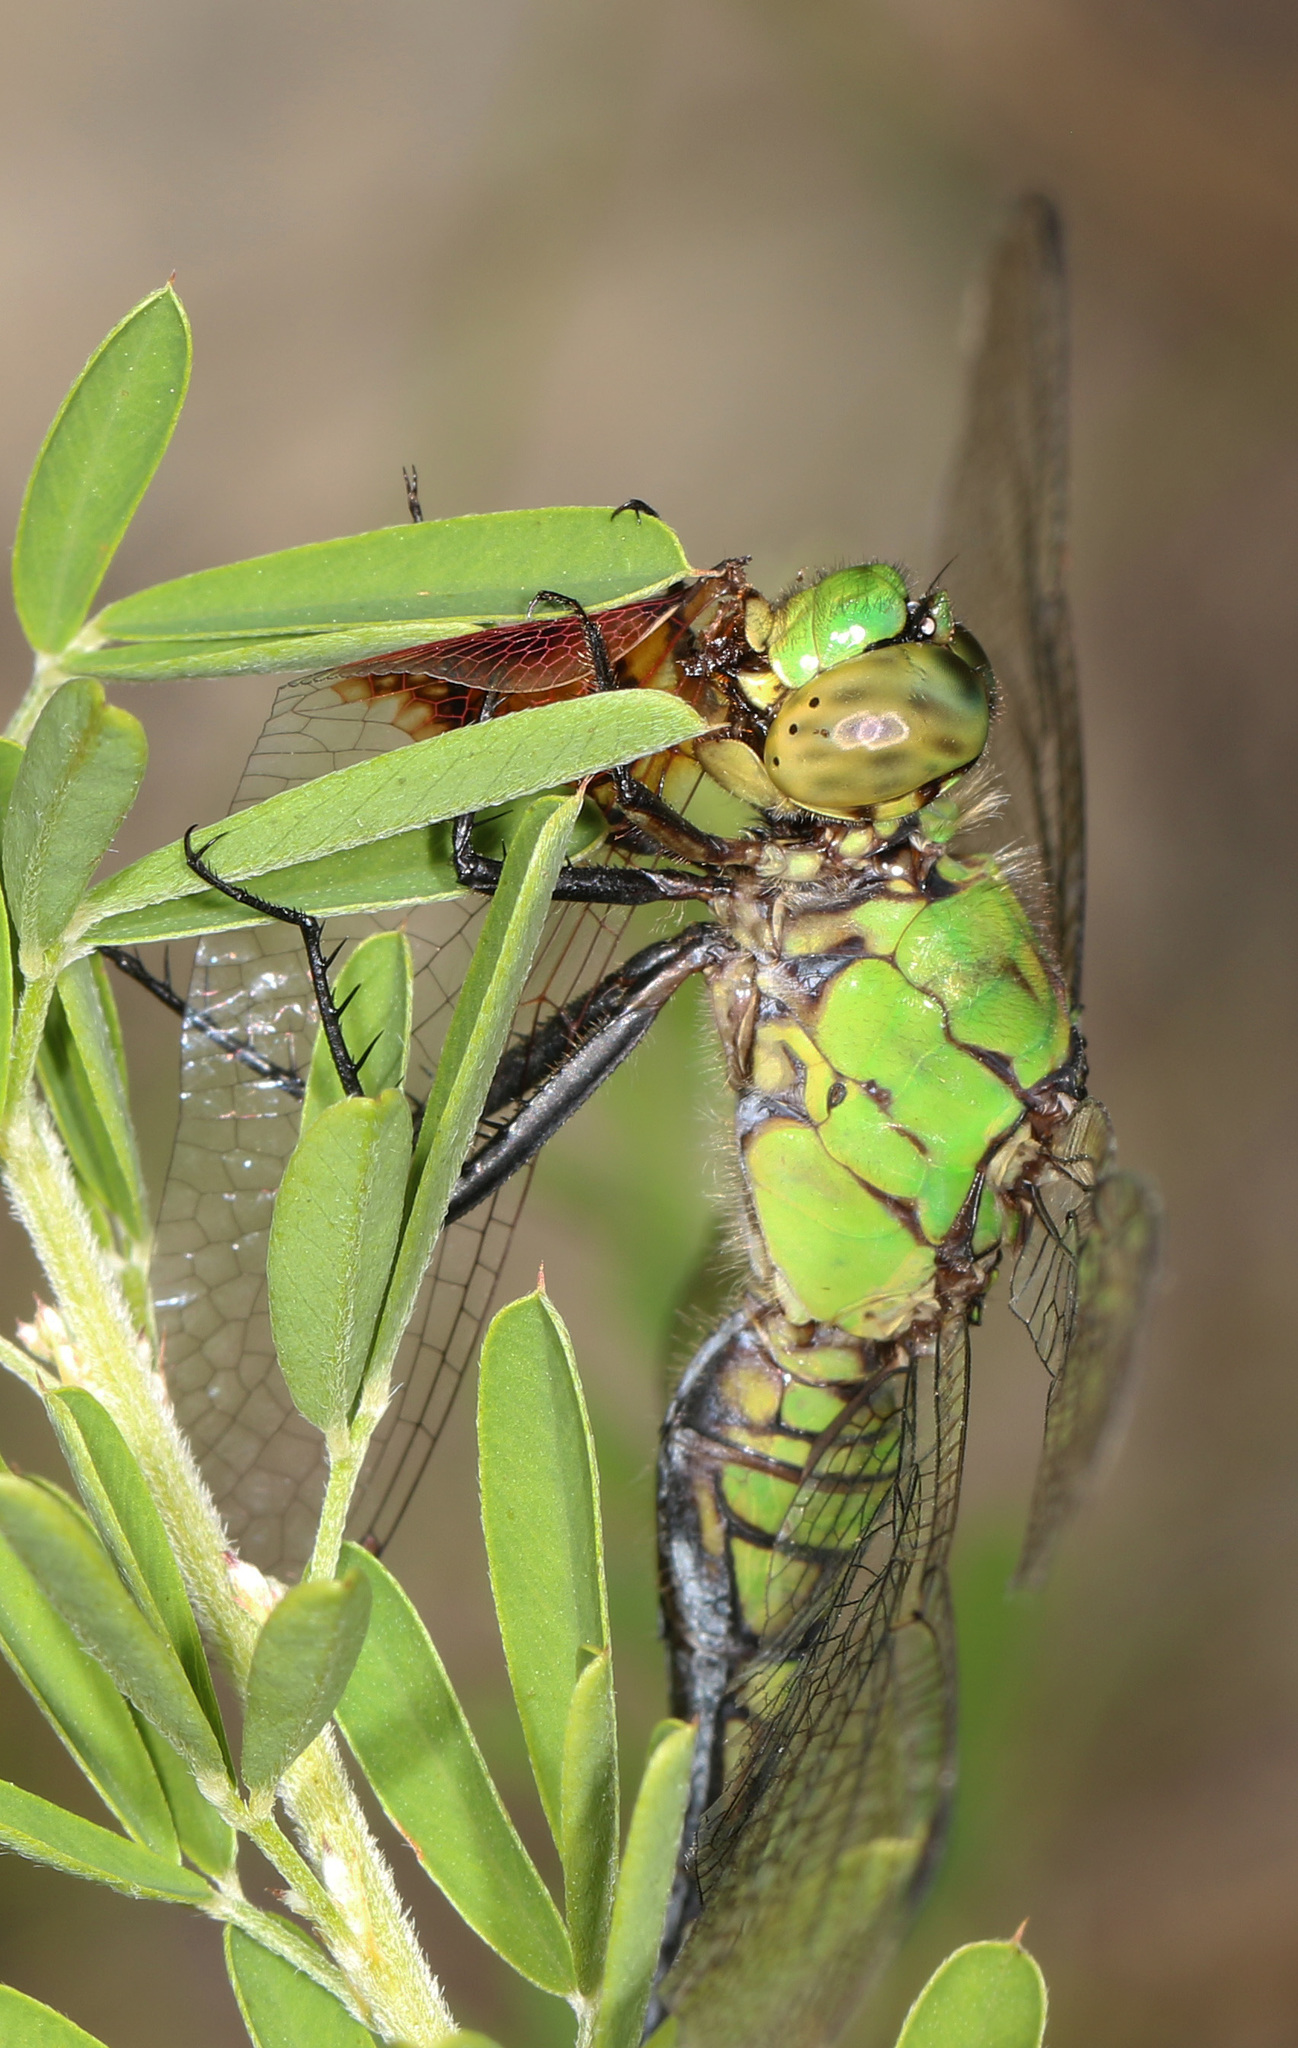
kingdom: Animalia
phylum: Arthropoda
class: Insecta
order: Odonata
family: Libellulidae
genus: Erythemis
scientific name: Erythemis simplicicollis
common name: Eastern pondhawk
